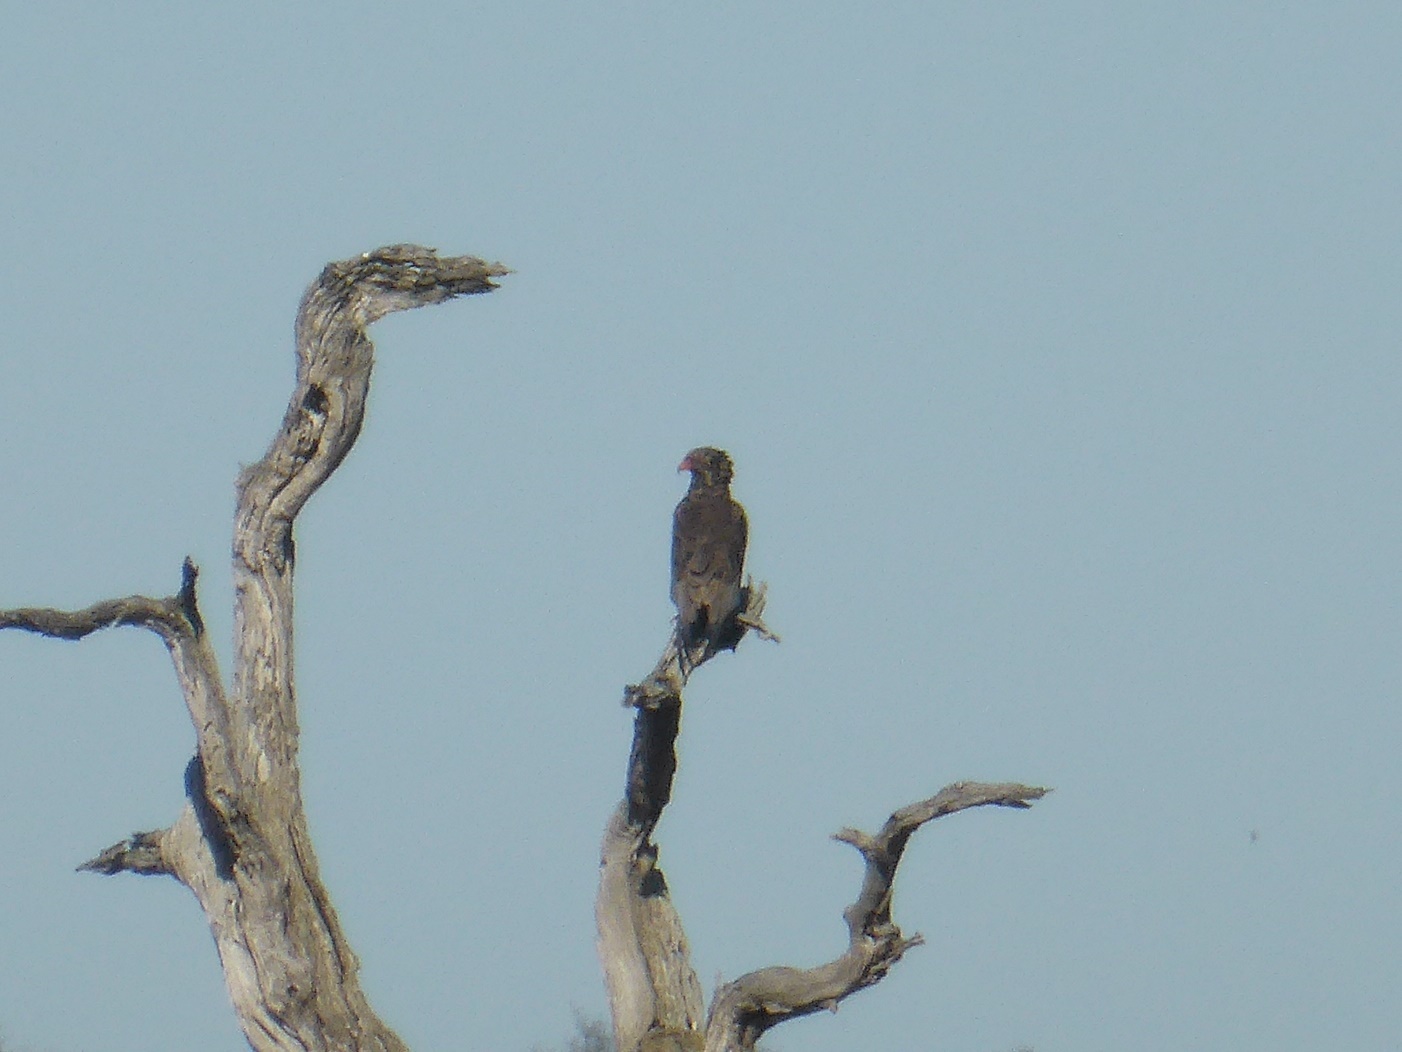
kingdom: Animalia
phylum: Chordata
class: Aves
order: Accipitriformes
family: Accipitridae
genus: Terathopius
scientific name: Terathopius ecaudatus
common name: Bateleur
